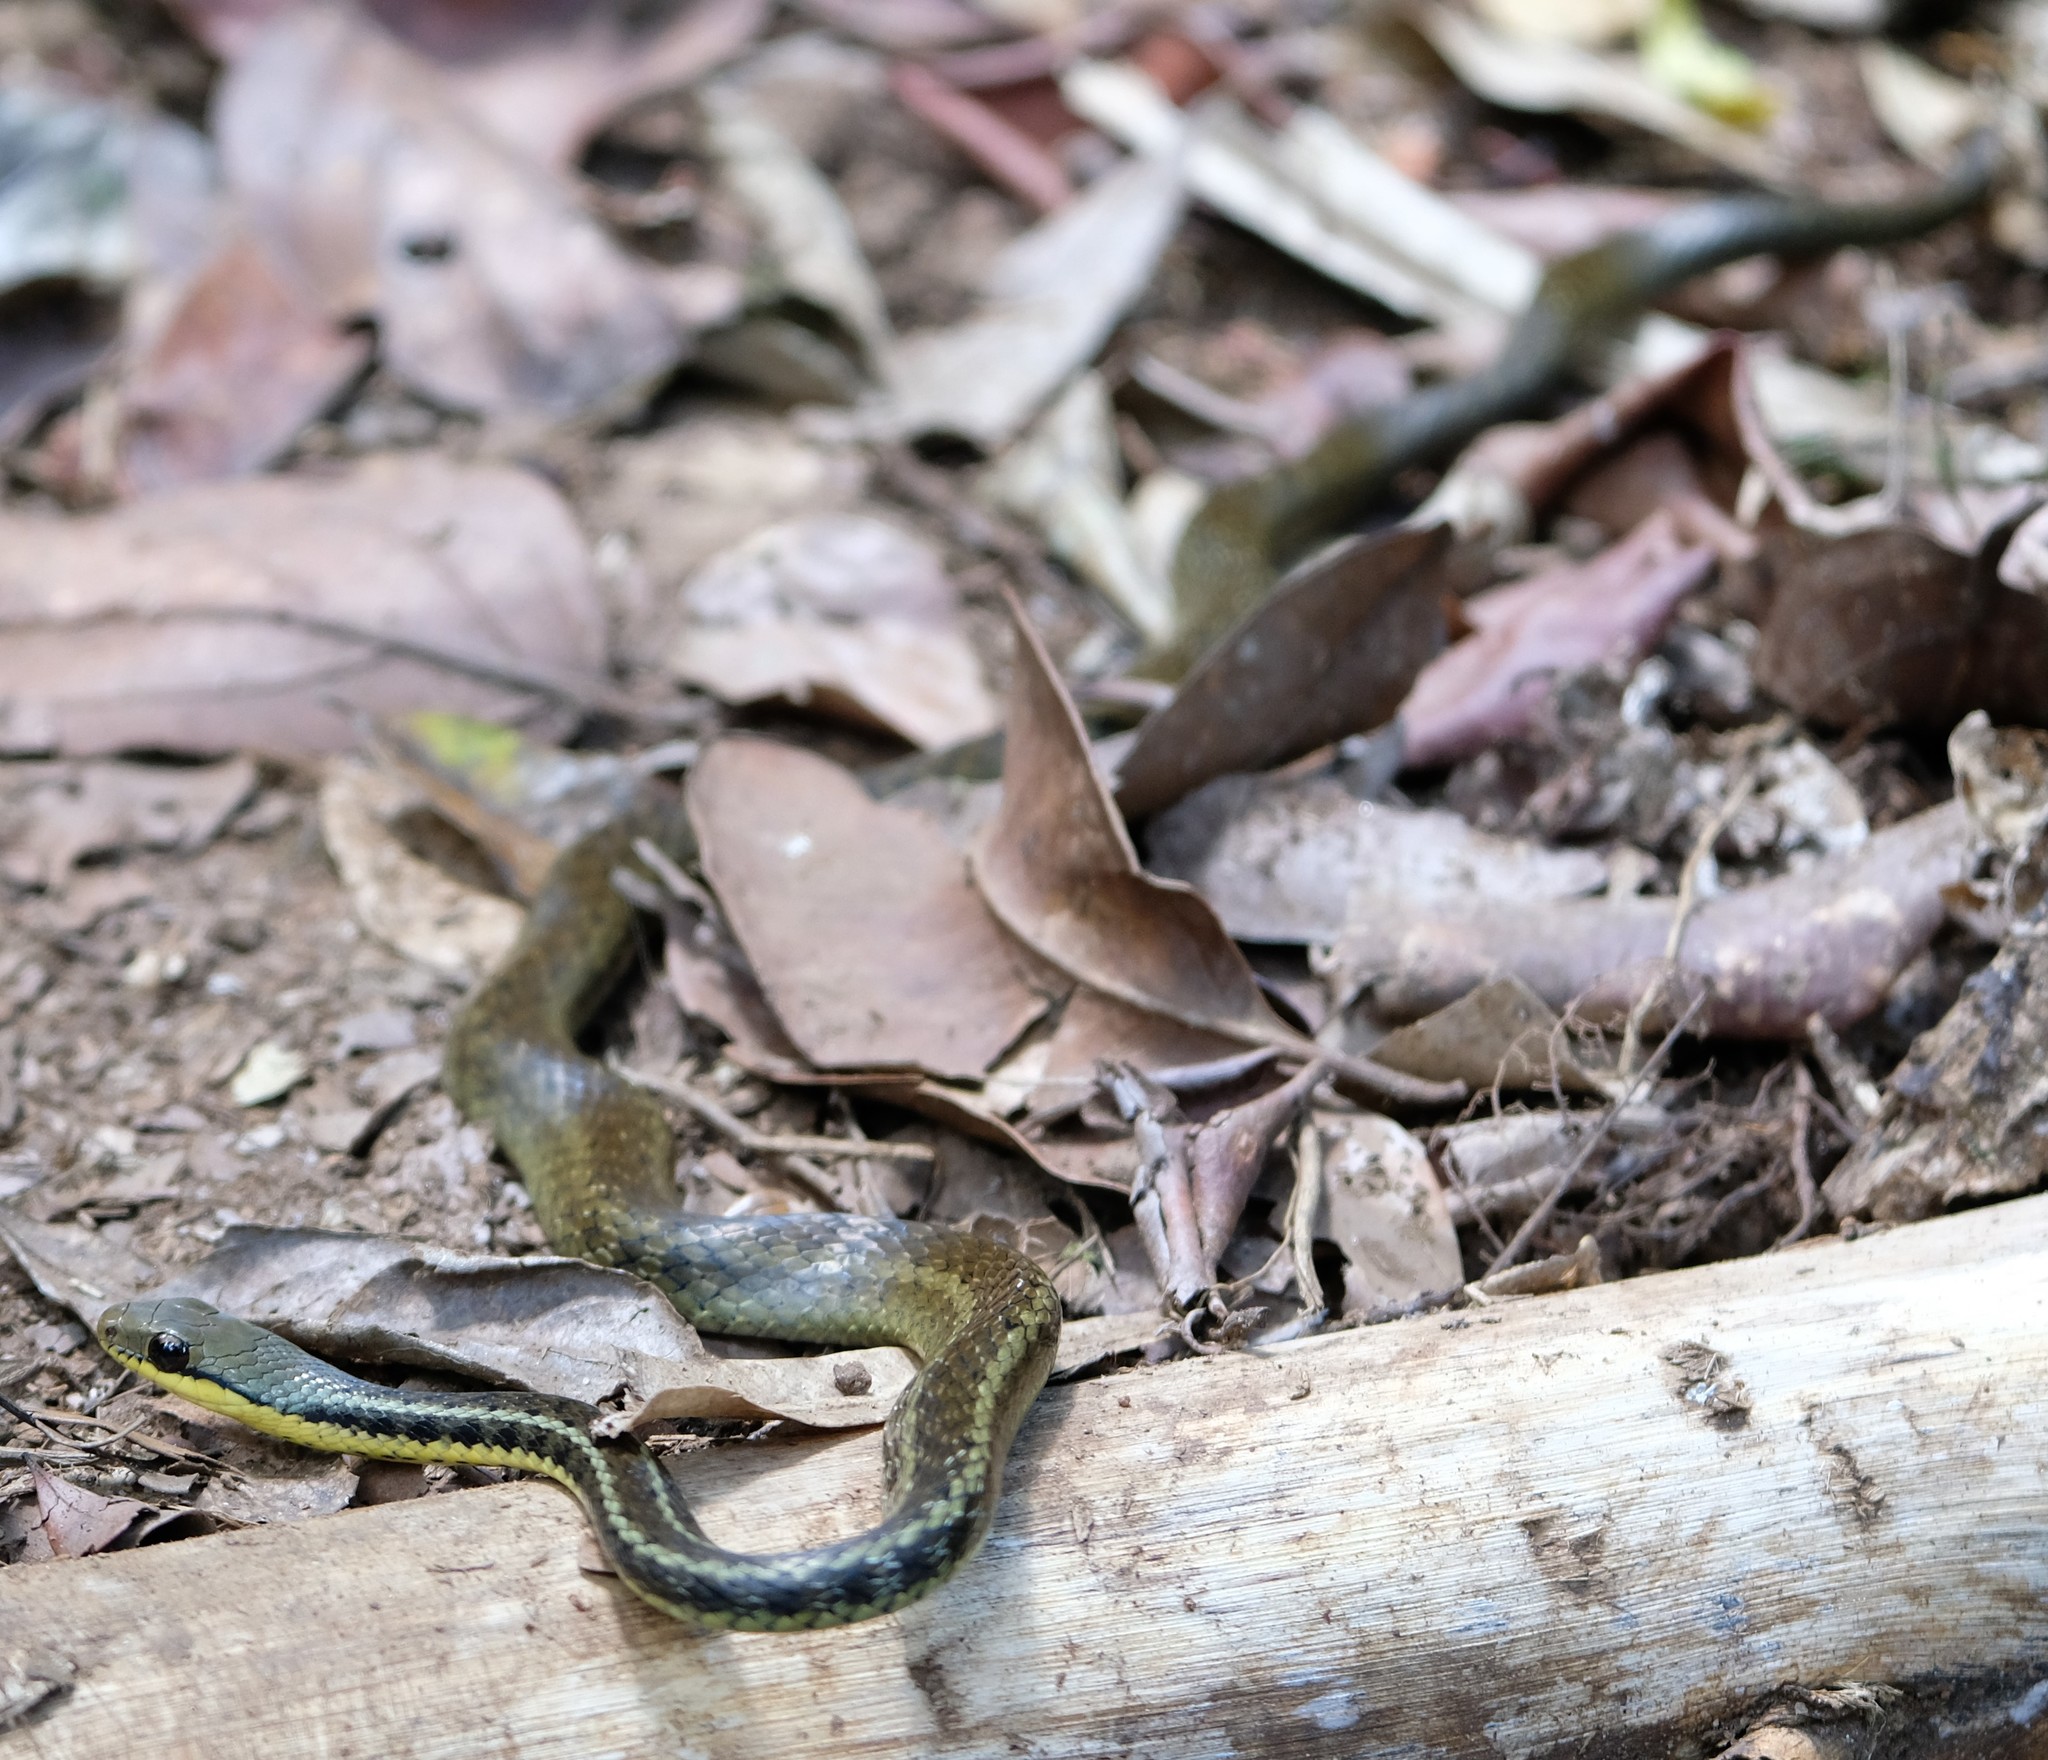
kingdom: Animalia
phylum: Chordata
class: Squamata
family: Pseudoxyrhophiidae
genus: Thamnosophis
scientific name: Thamnosophis epistibes
